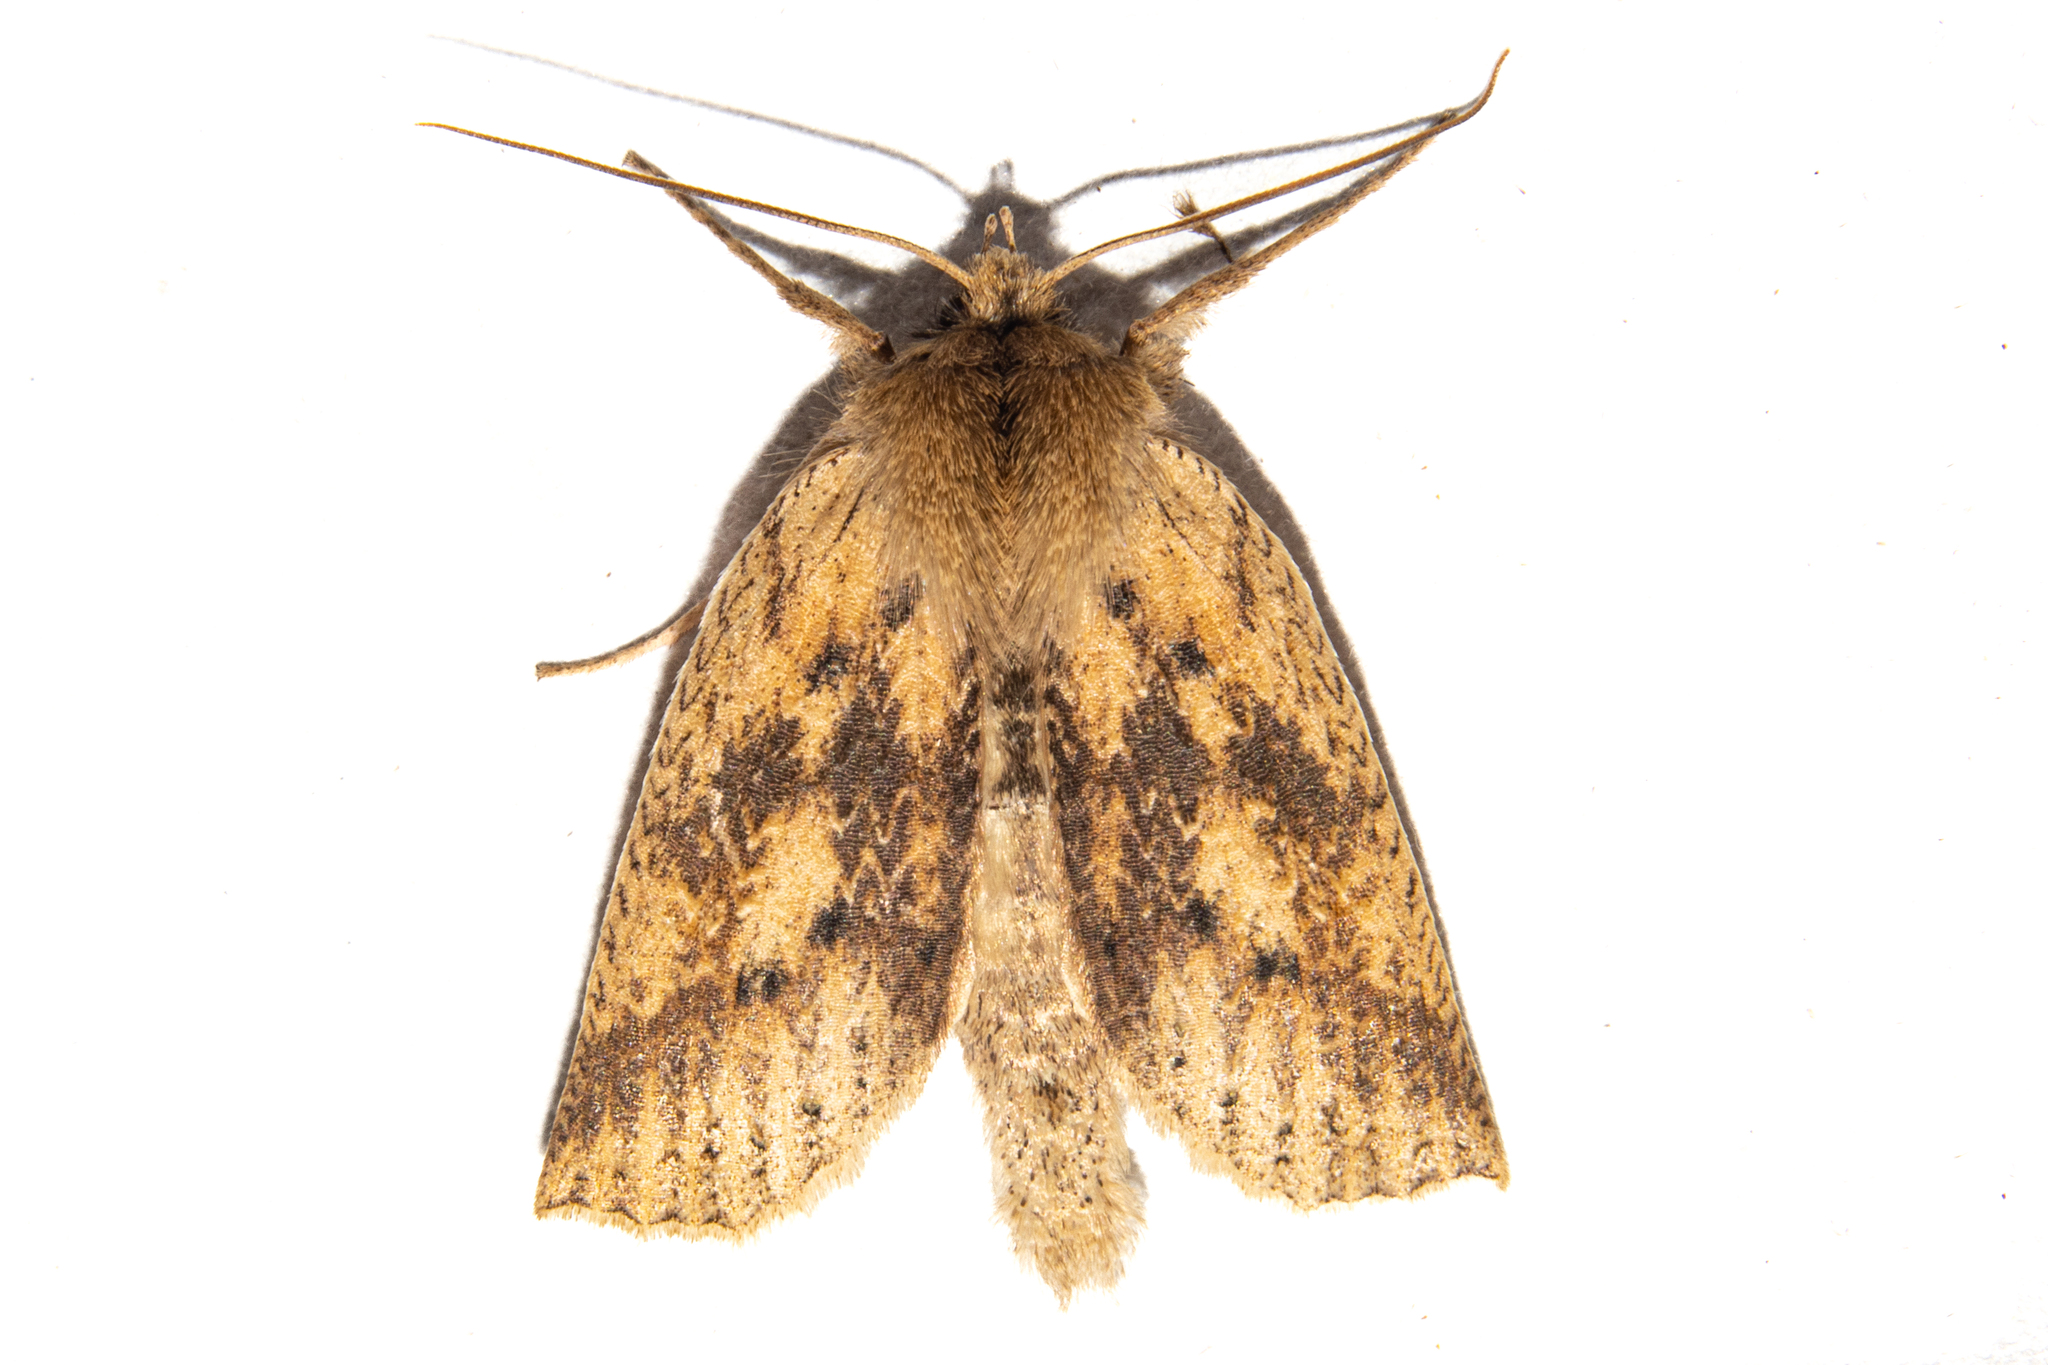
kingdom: Animalia
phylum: Arthropoda
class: Insecta
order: Lepidoptera
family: Geometridae
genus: Declana
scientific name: Declana leptomera
